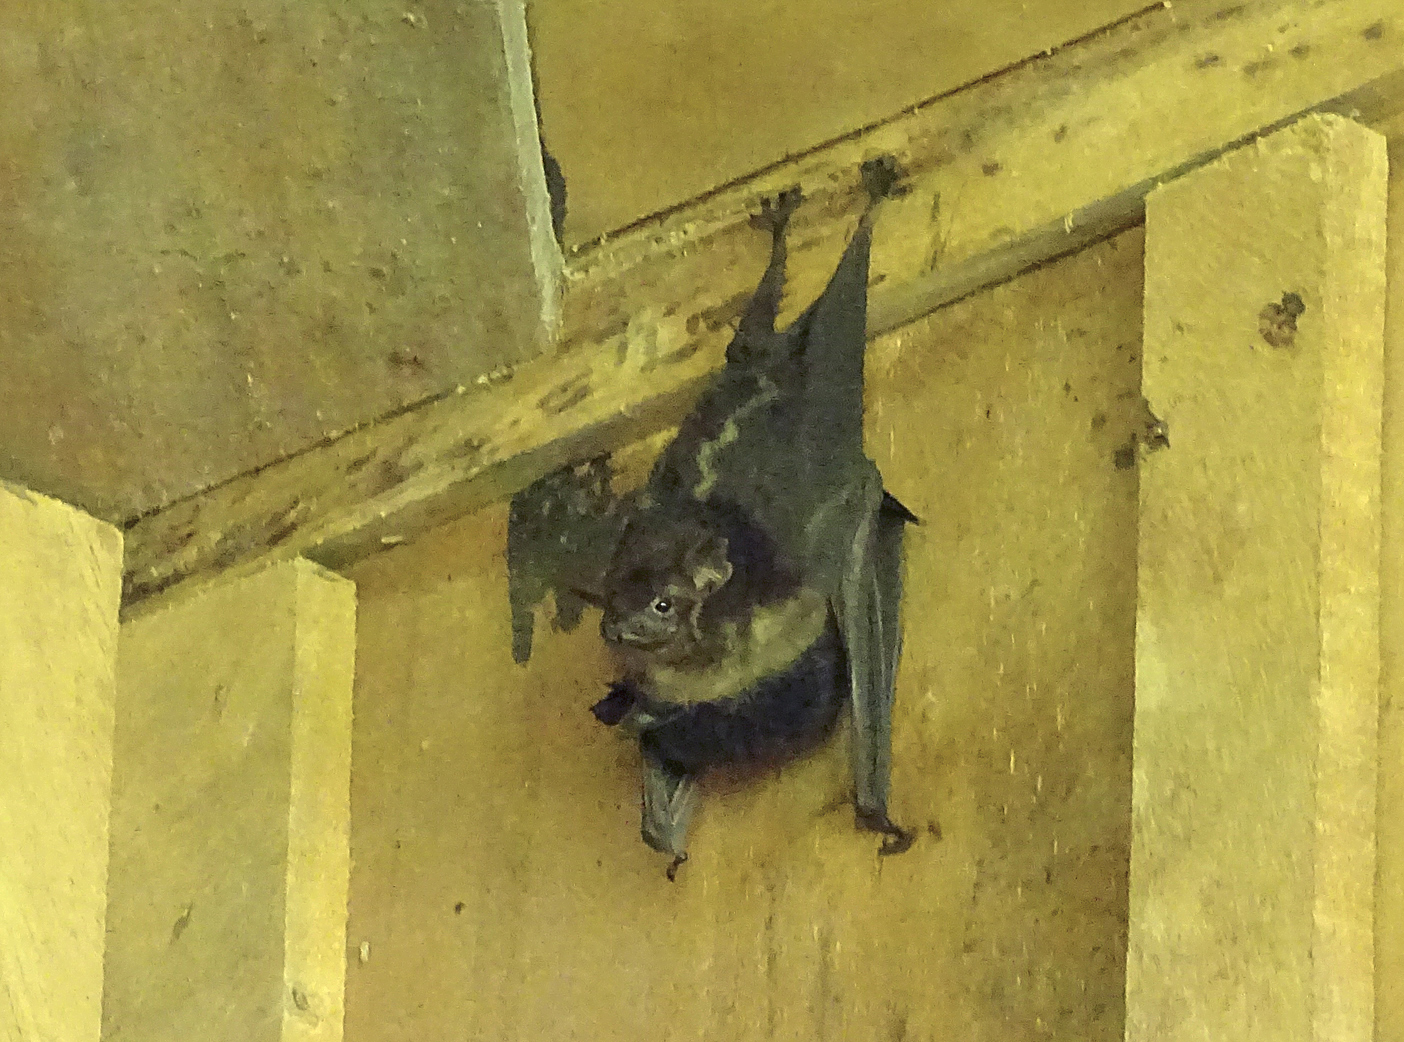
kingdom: Animalia
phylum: Chordata
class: Mammalia
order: Chiroptera
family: Emballonuridae
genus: Saccopteryx
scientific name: Saccopteryx bilineata
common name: Greater sac-winged bat
